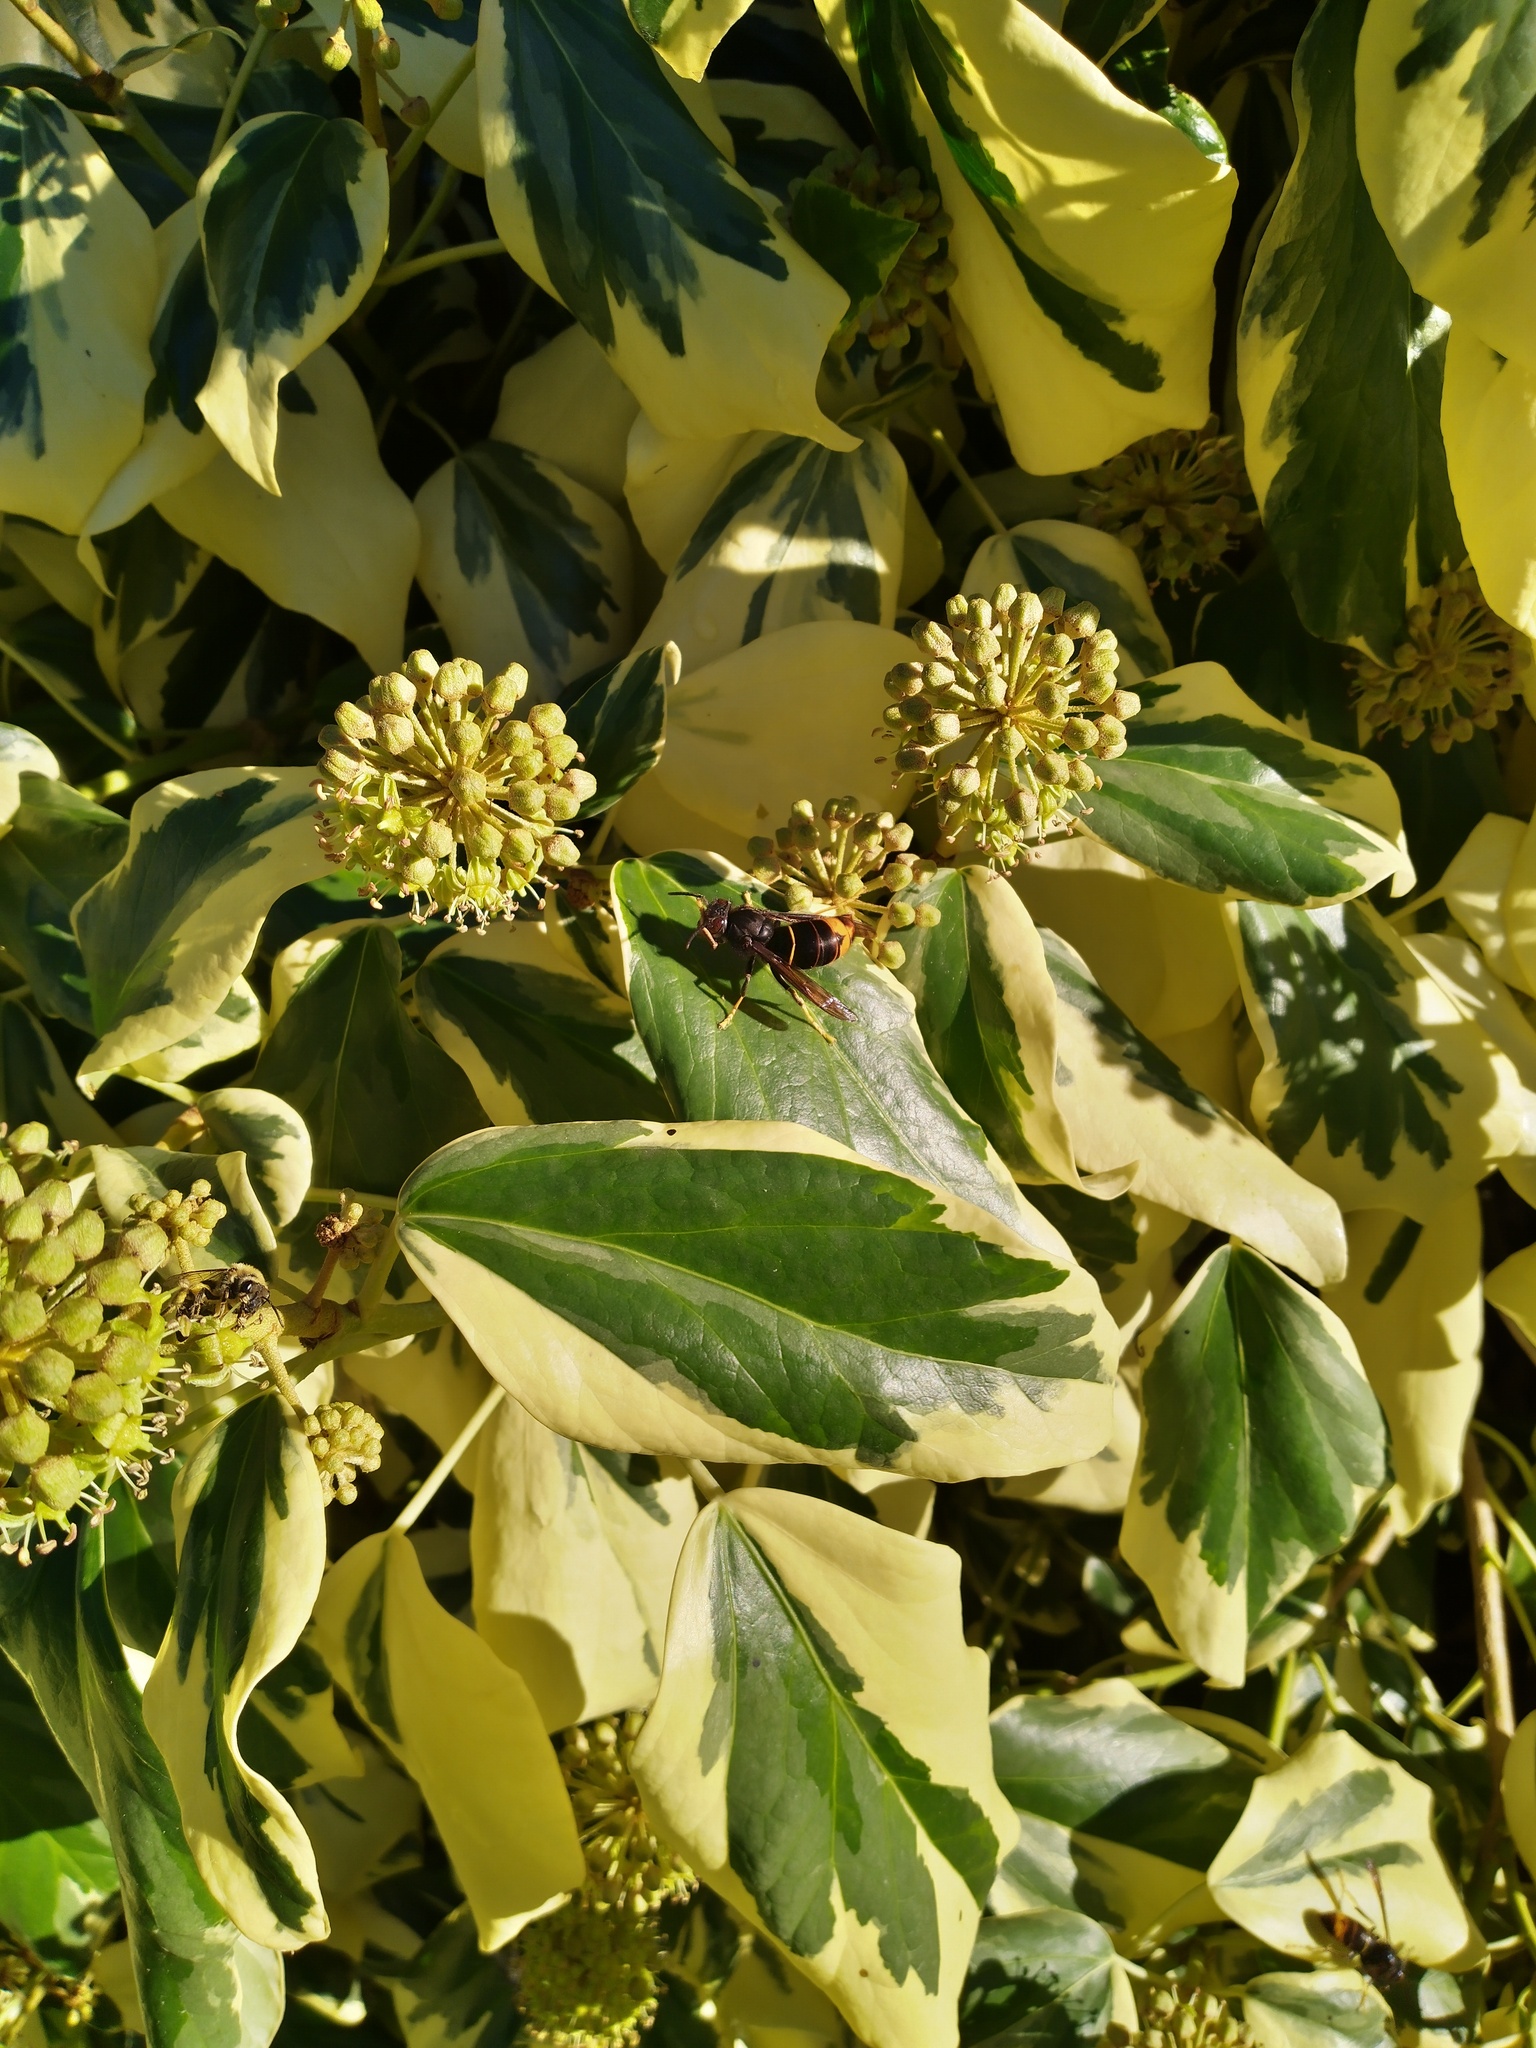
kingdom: Animalia
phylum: Arthropoda
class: Insecta
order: Hymenoptera
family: Vespidae
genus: Vespa
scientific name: Vespa velutina
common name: Asian hornet
